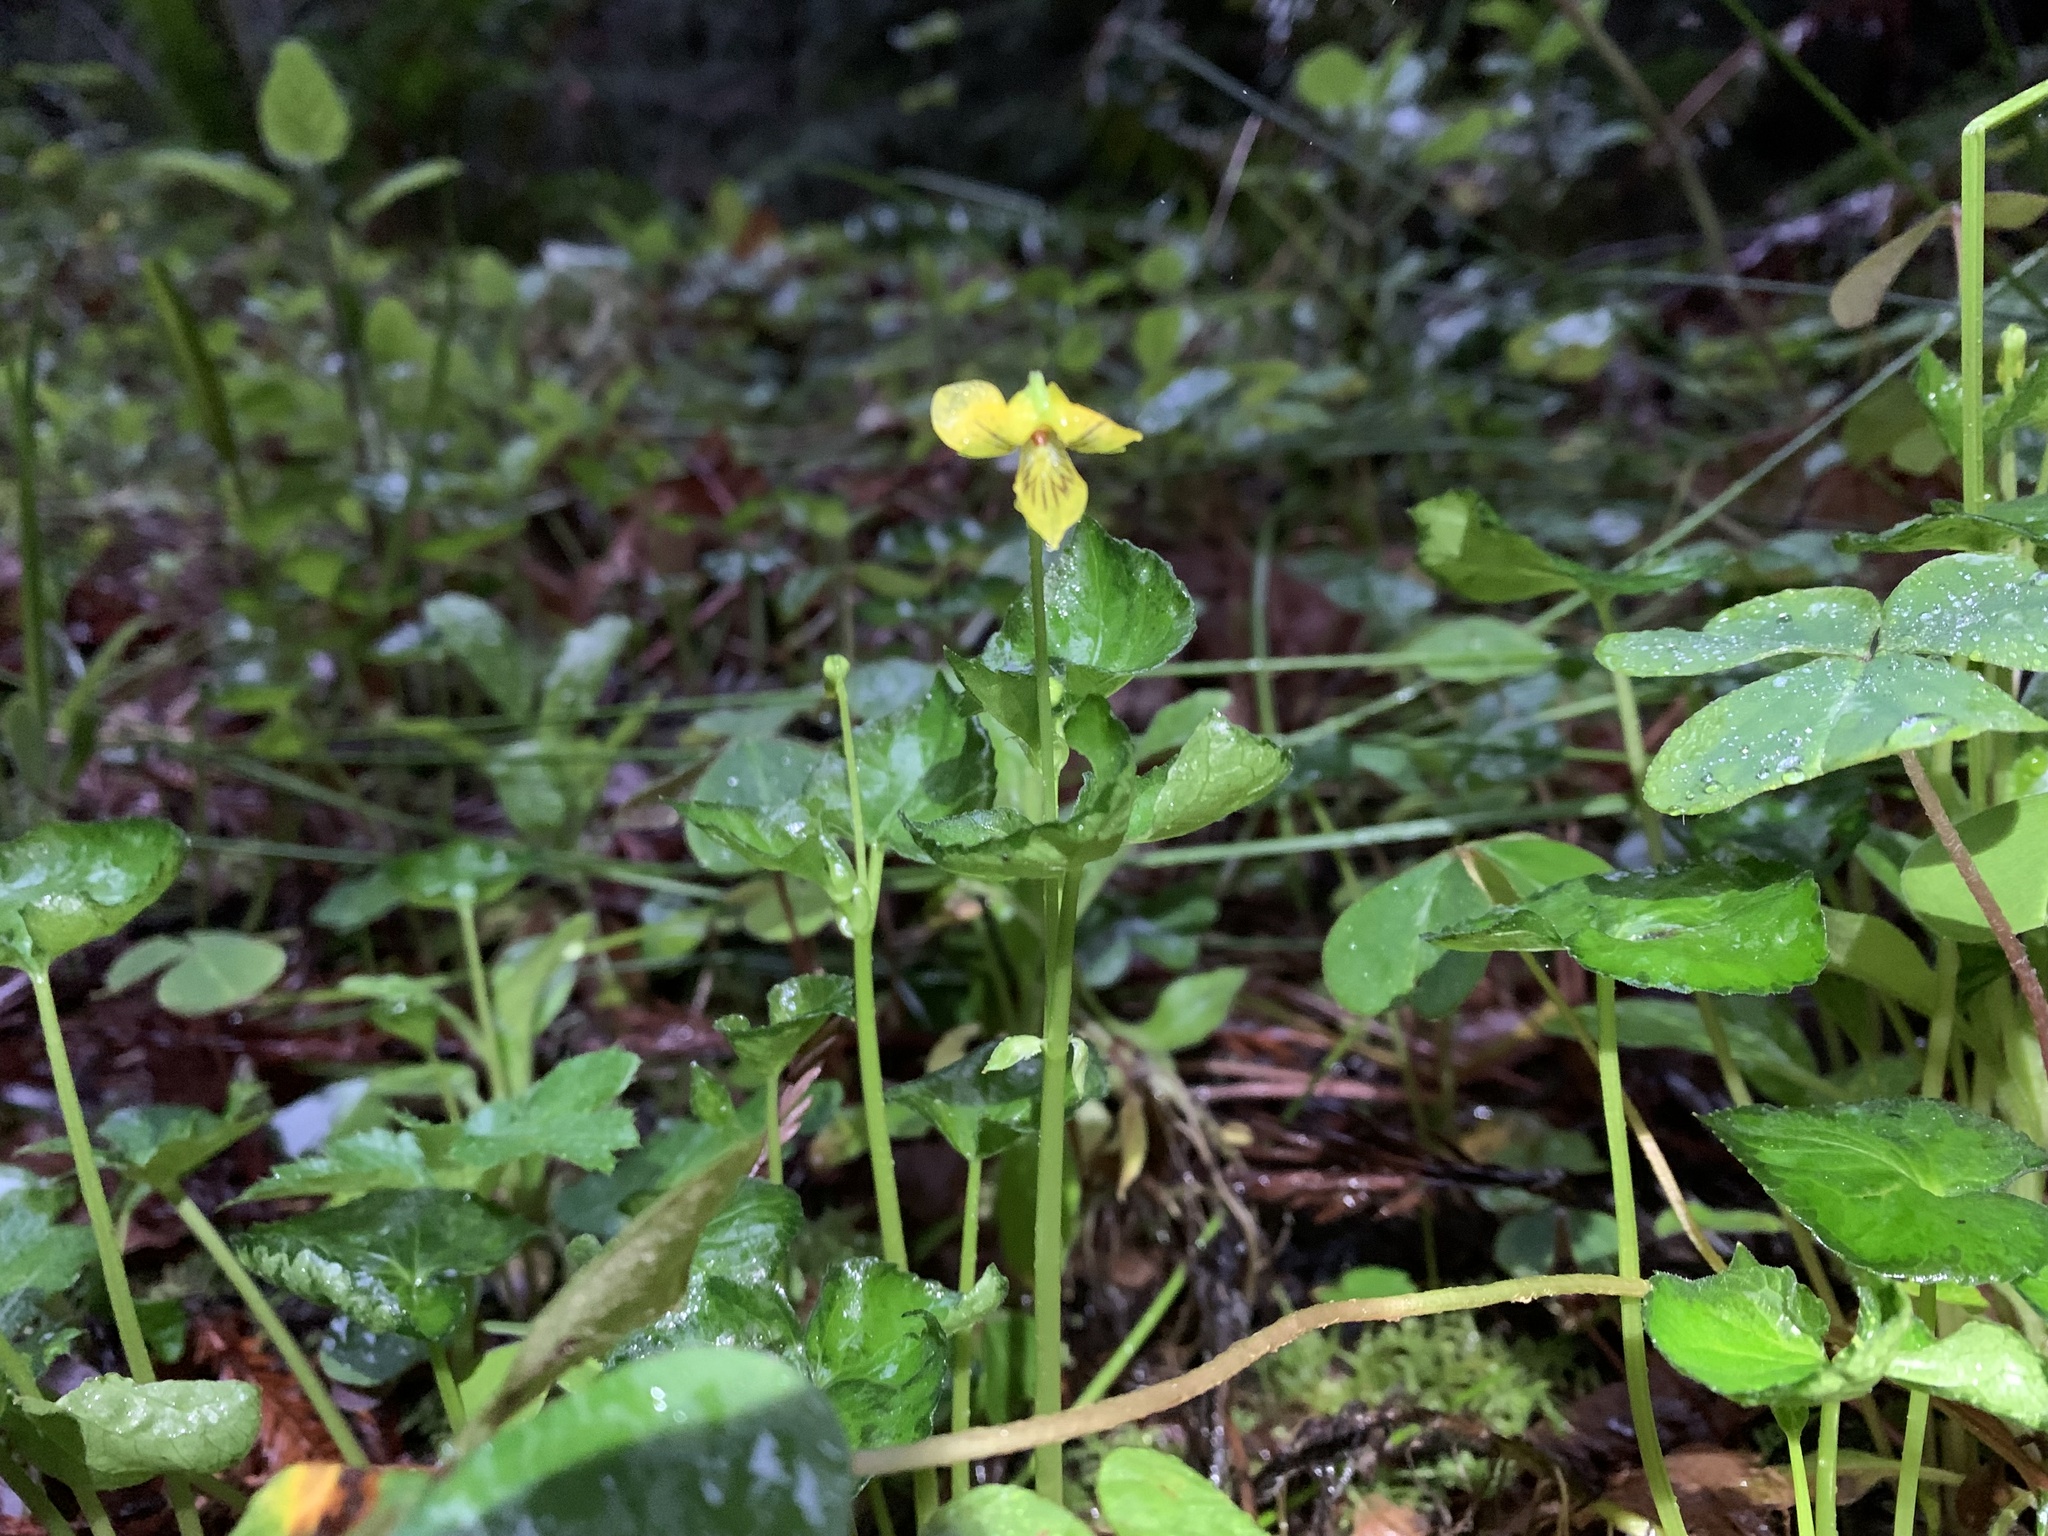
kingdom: Plantae
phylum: Tracheophyta
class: Magnoliopsida
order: Malpighiales
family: Violaceae
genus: Viola
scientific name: Viola glabella
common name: Stream violet
